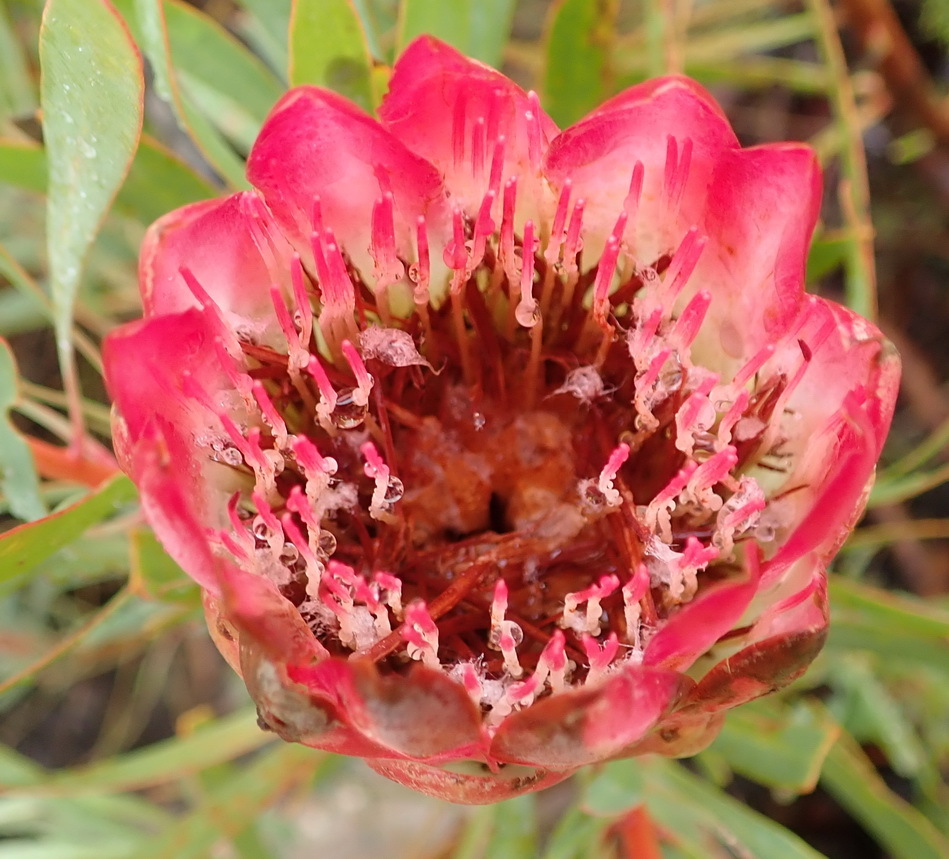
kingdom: Plantae
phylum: Tracheophyta
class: Magnoliopsida
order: Proteales
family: Proteaceae
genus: Protea
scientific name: Protea repens
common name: Sugarbush
